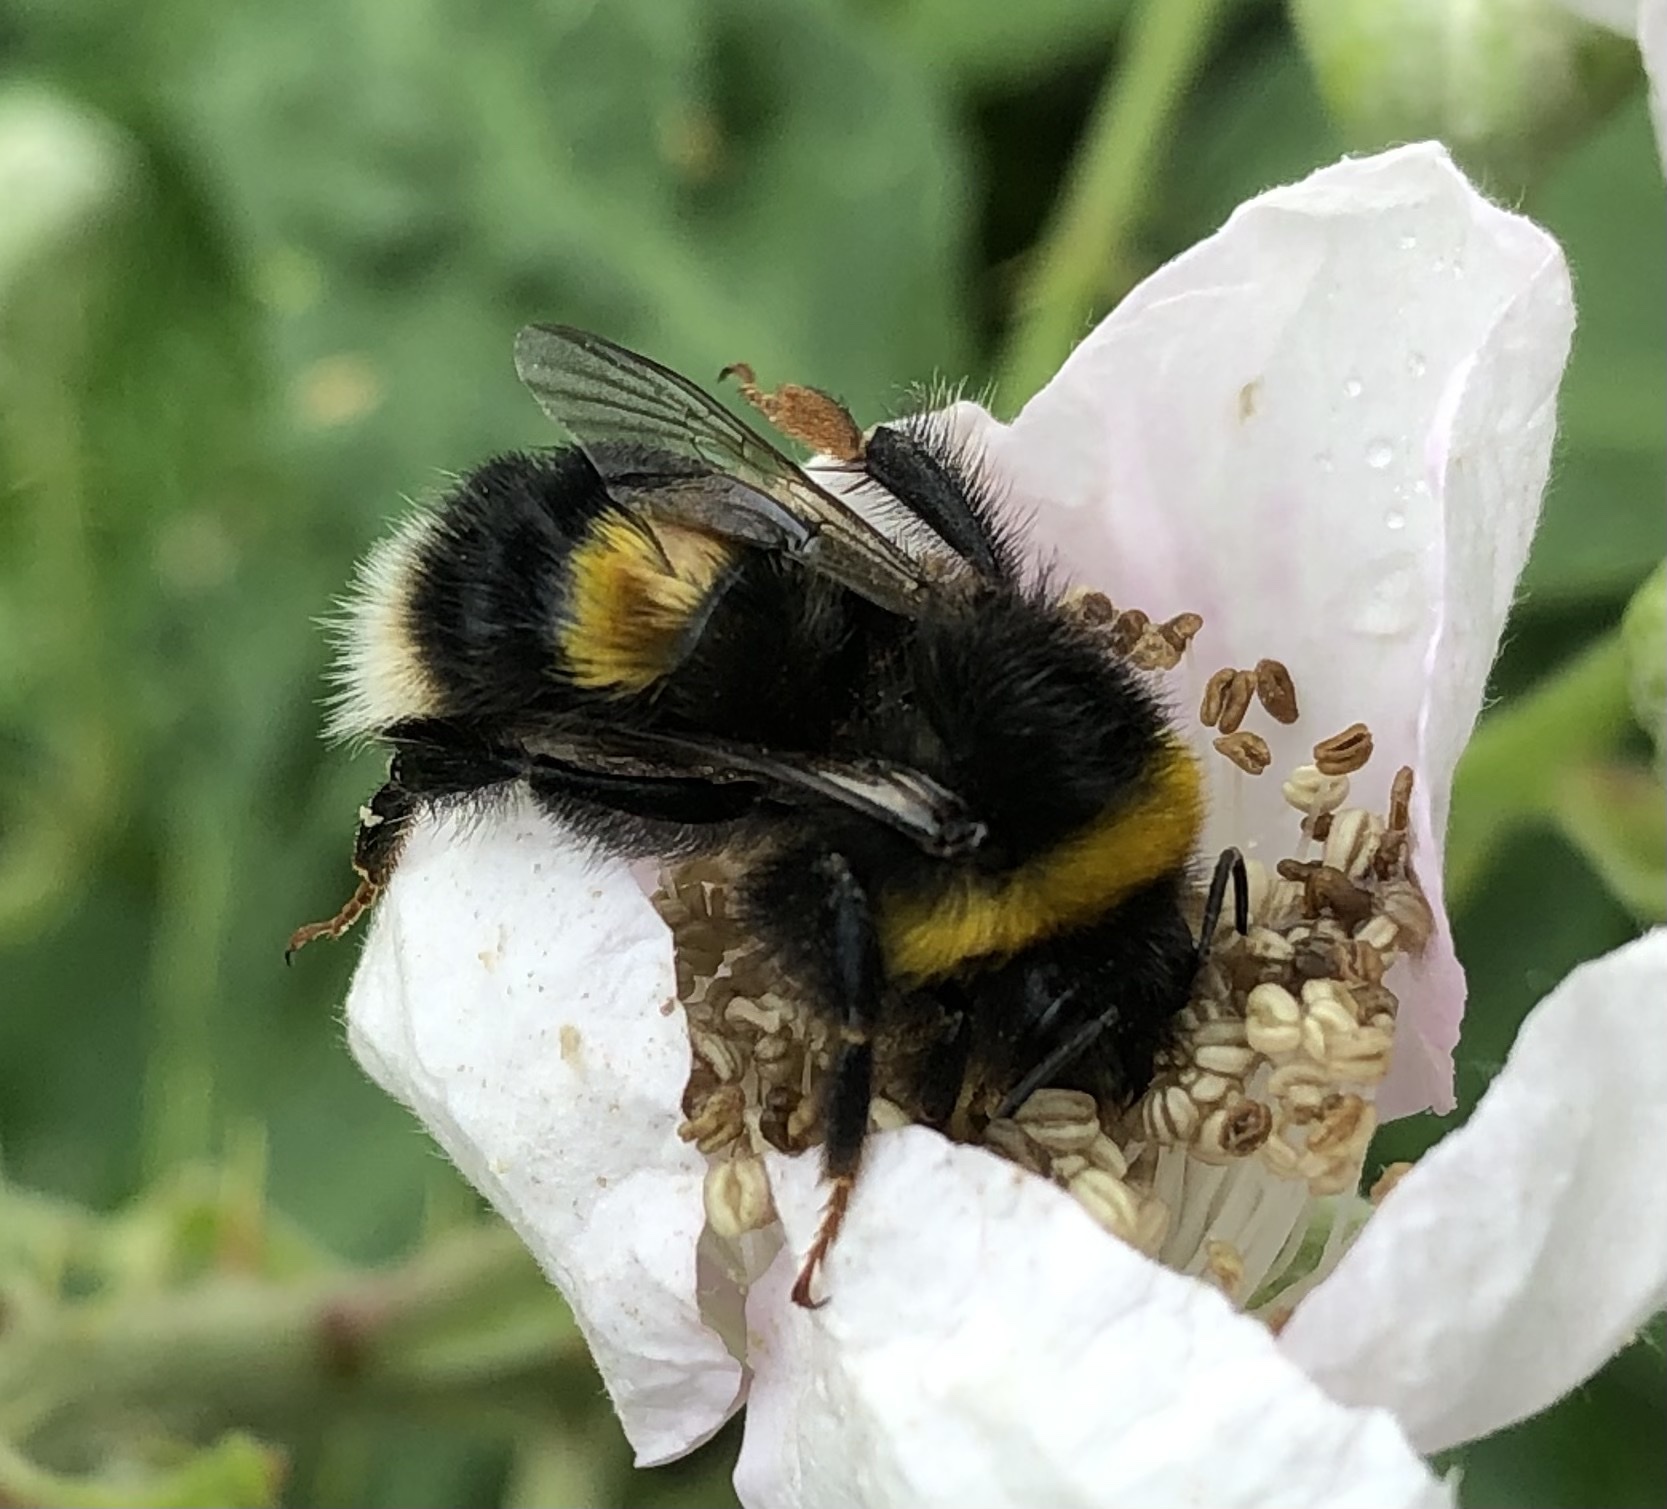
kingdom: Animalia
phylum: Arthropoda
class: Insecta
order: Hymenoptera
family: Apidae
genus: Bombus
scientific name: Bombus terrestris
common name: Buff-tailed bumblebee
